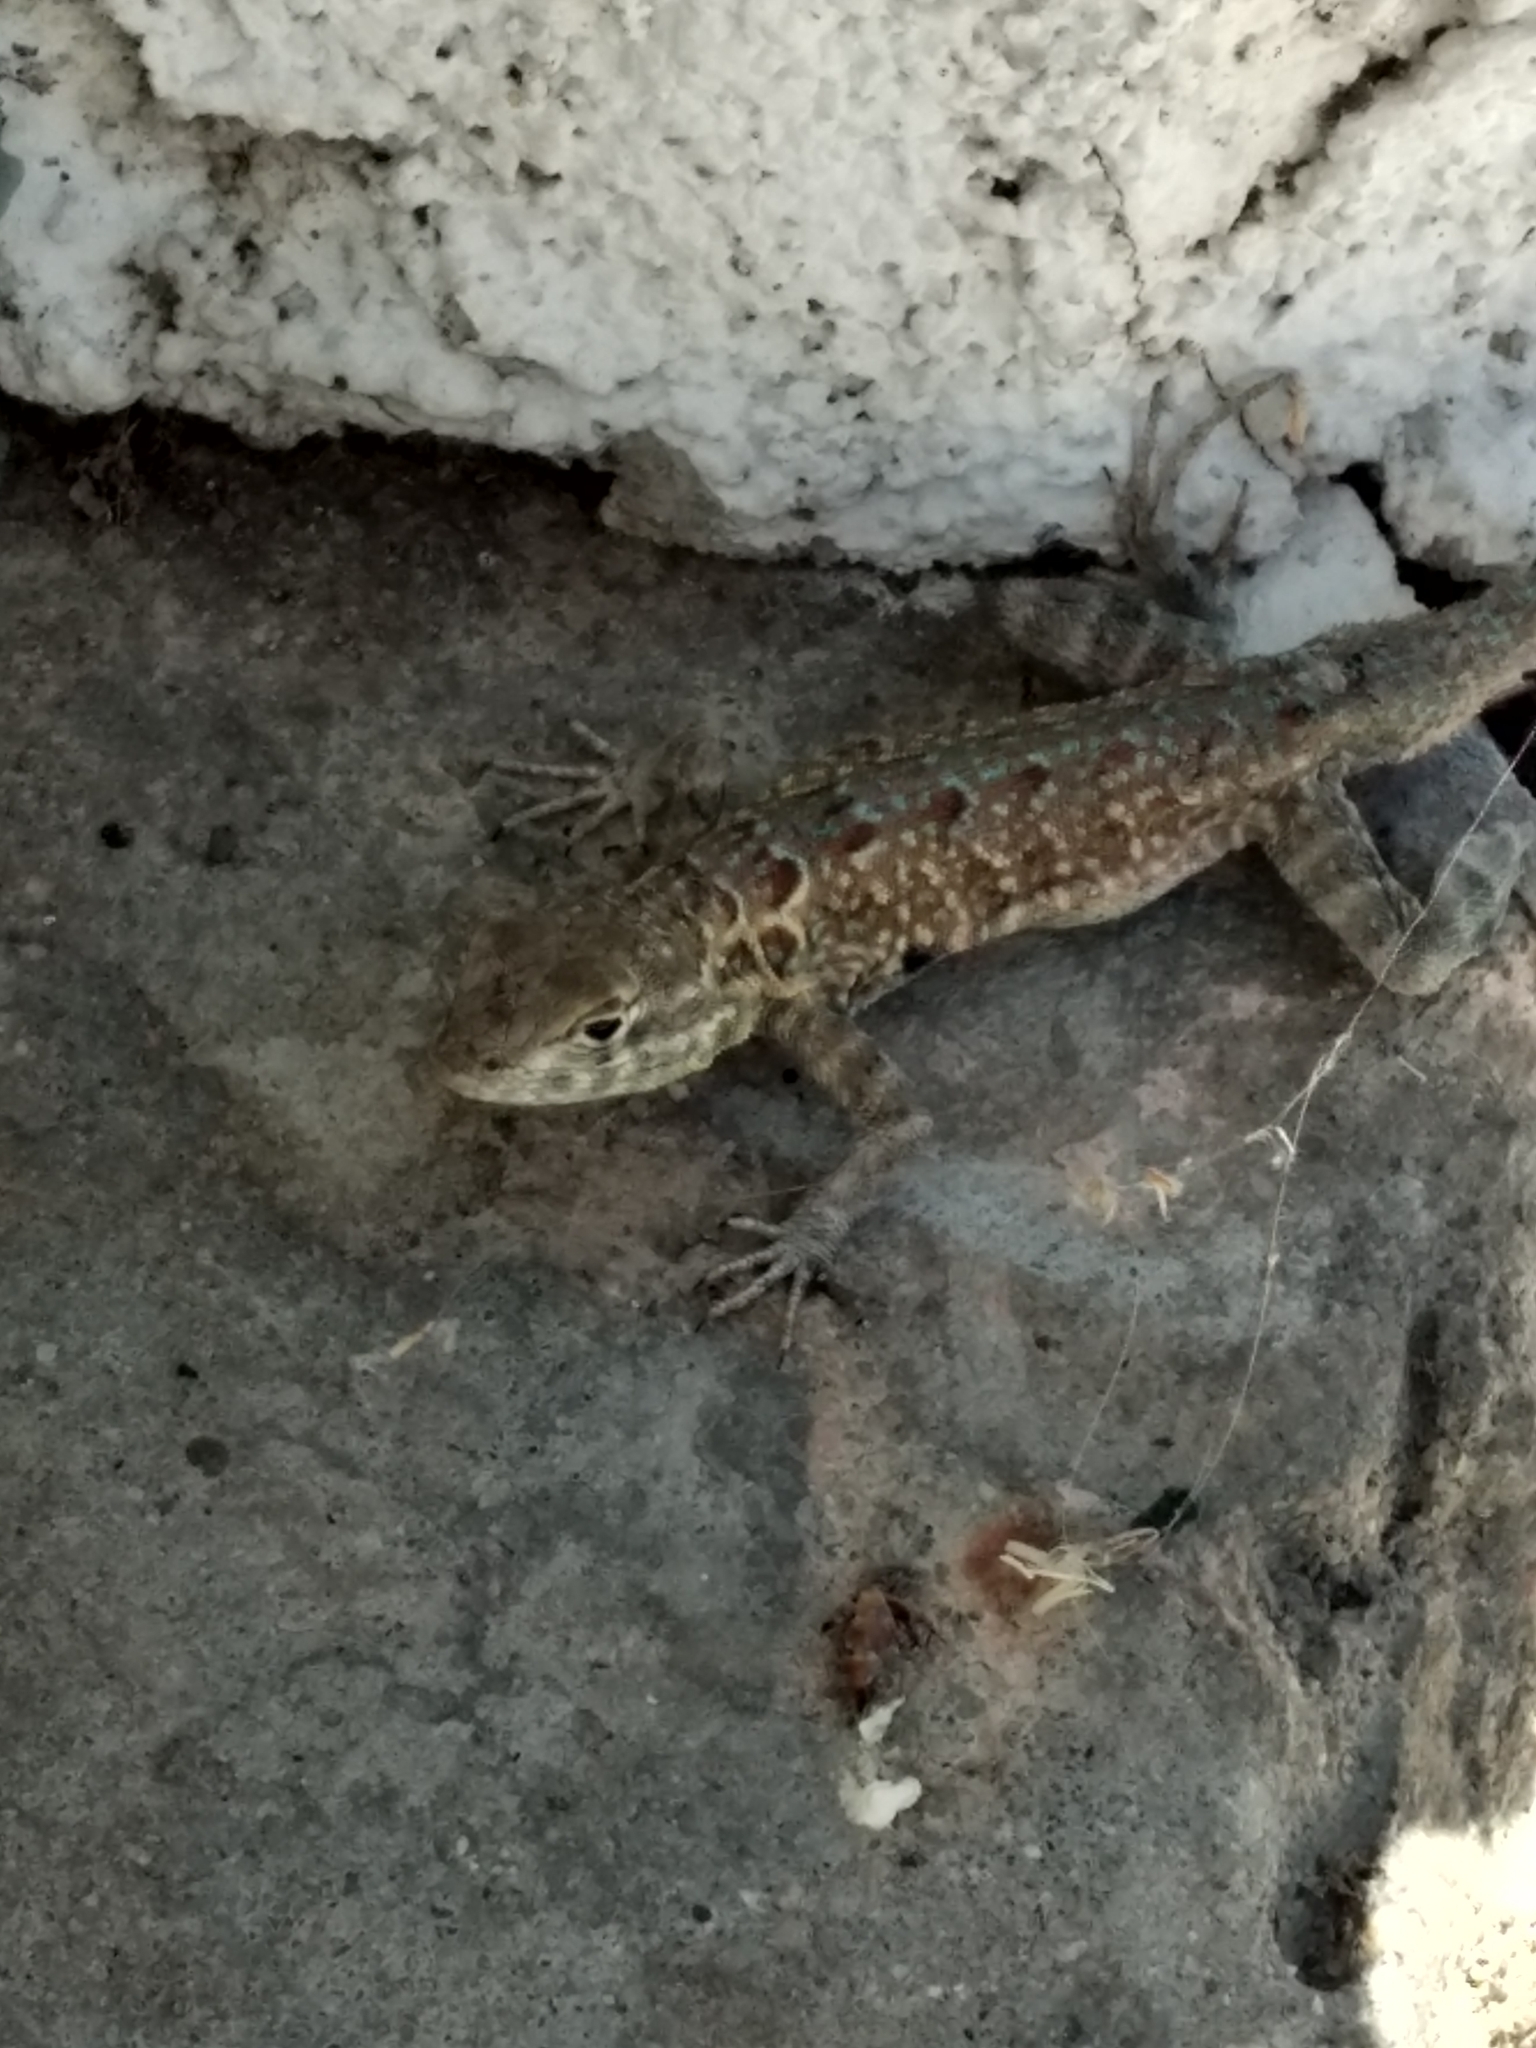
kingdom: Animalia
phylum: Chordata
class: Squamata
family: Phrynosomatidae
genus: Uta
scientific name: Uta stansburiana
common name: Side-blotched lizard
